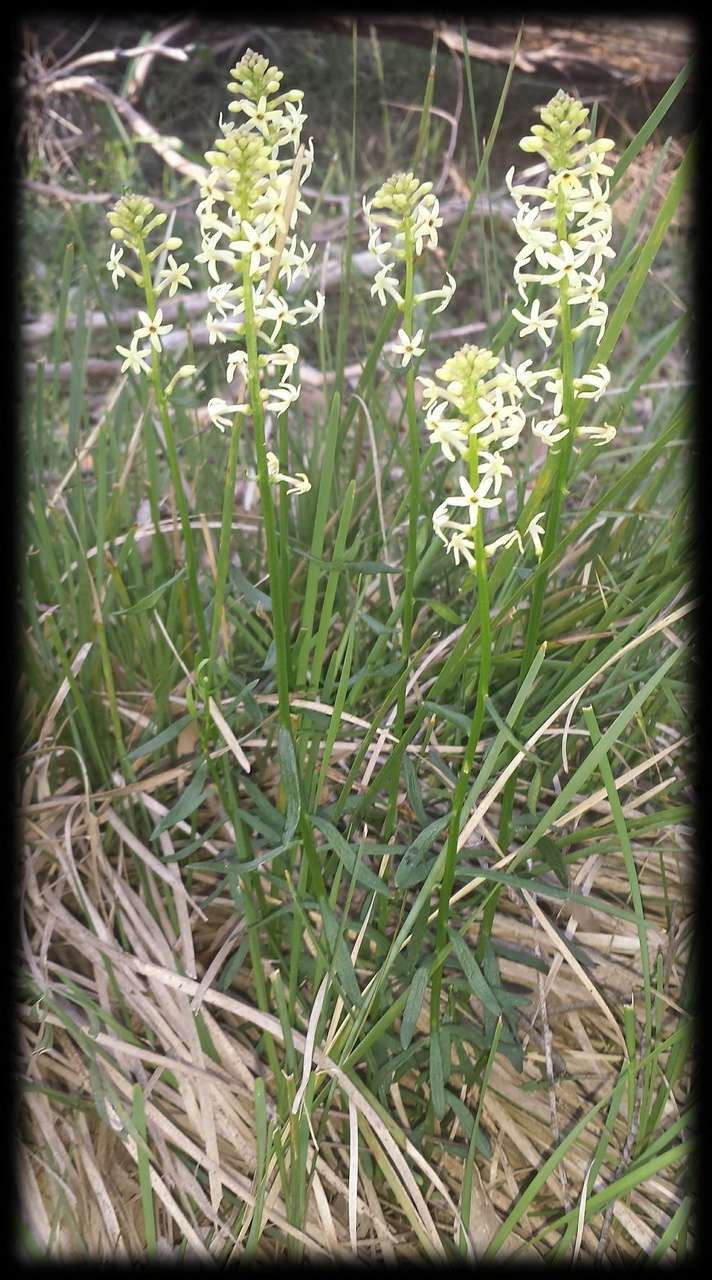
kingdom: Plantae
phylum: Tracheophyta
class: Magnoliopsida
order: Celastrales
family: Celastraceae
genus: Stackhousia
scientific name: Stackhousia monogyna
